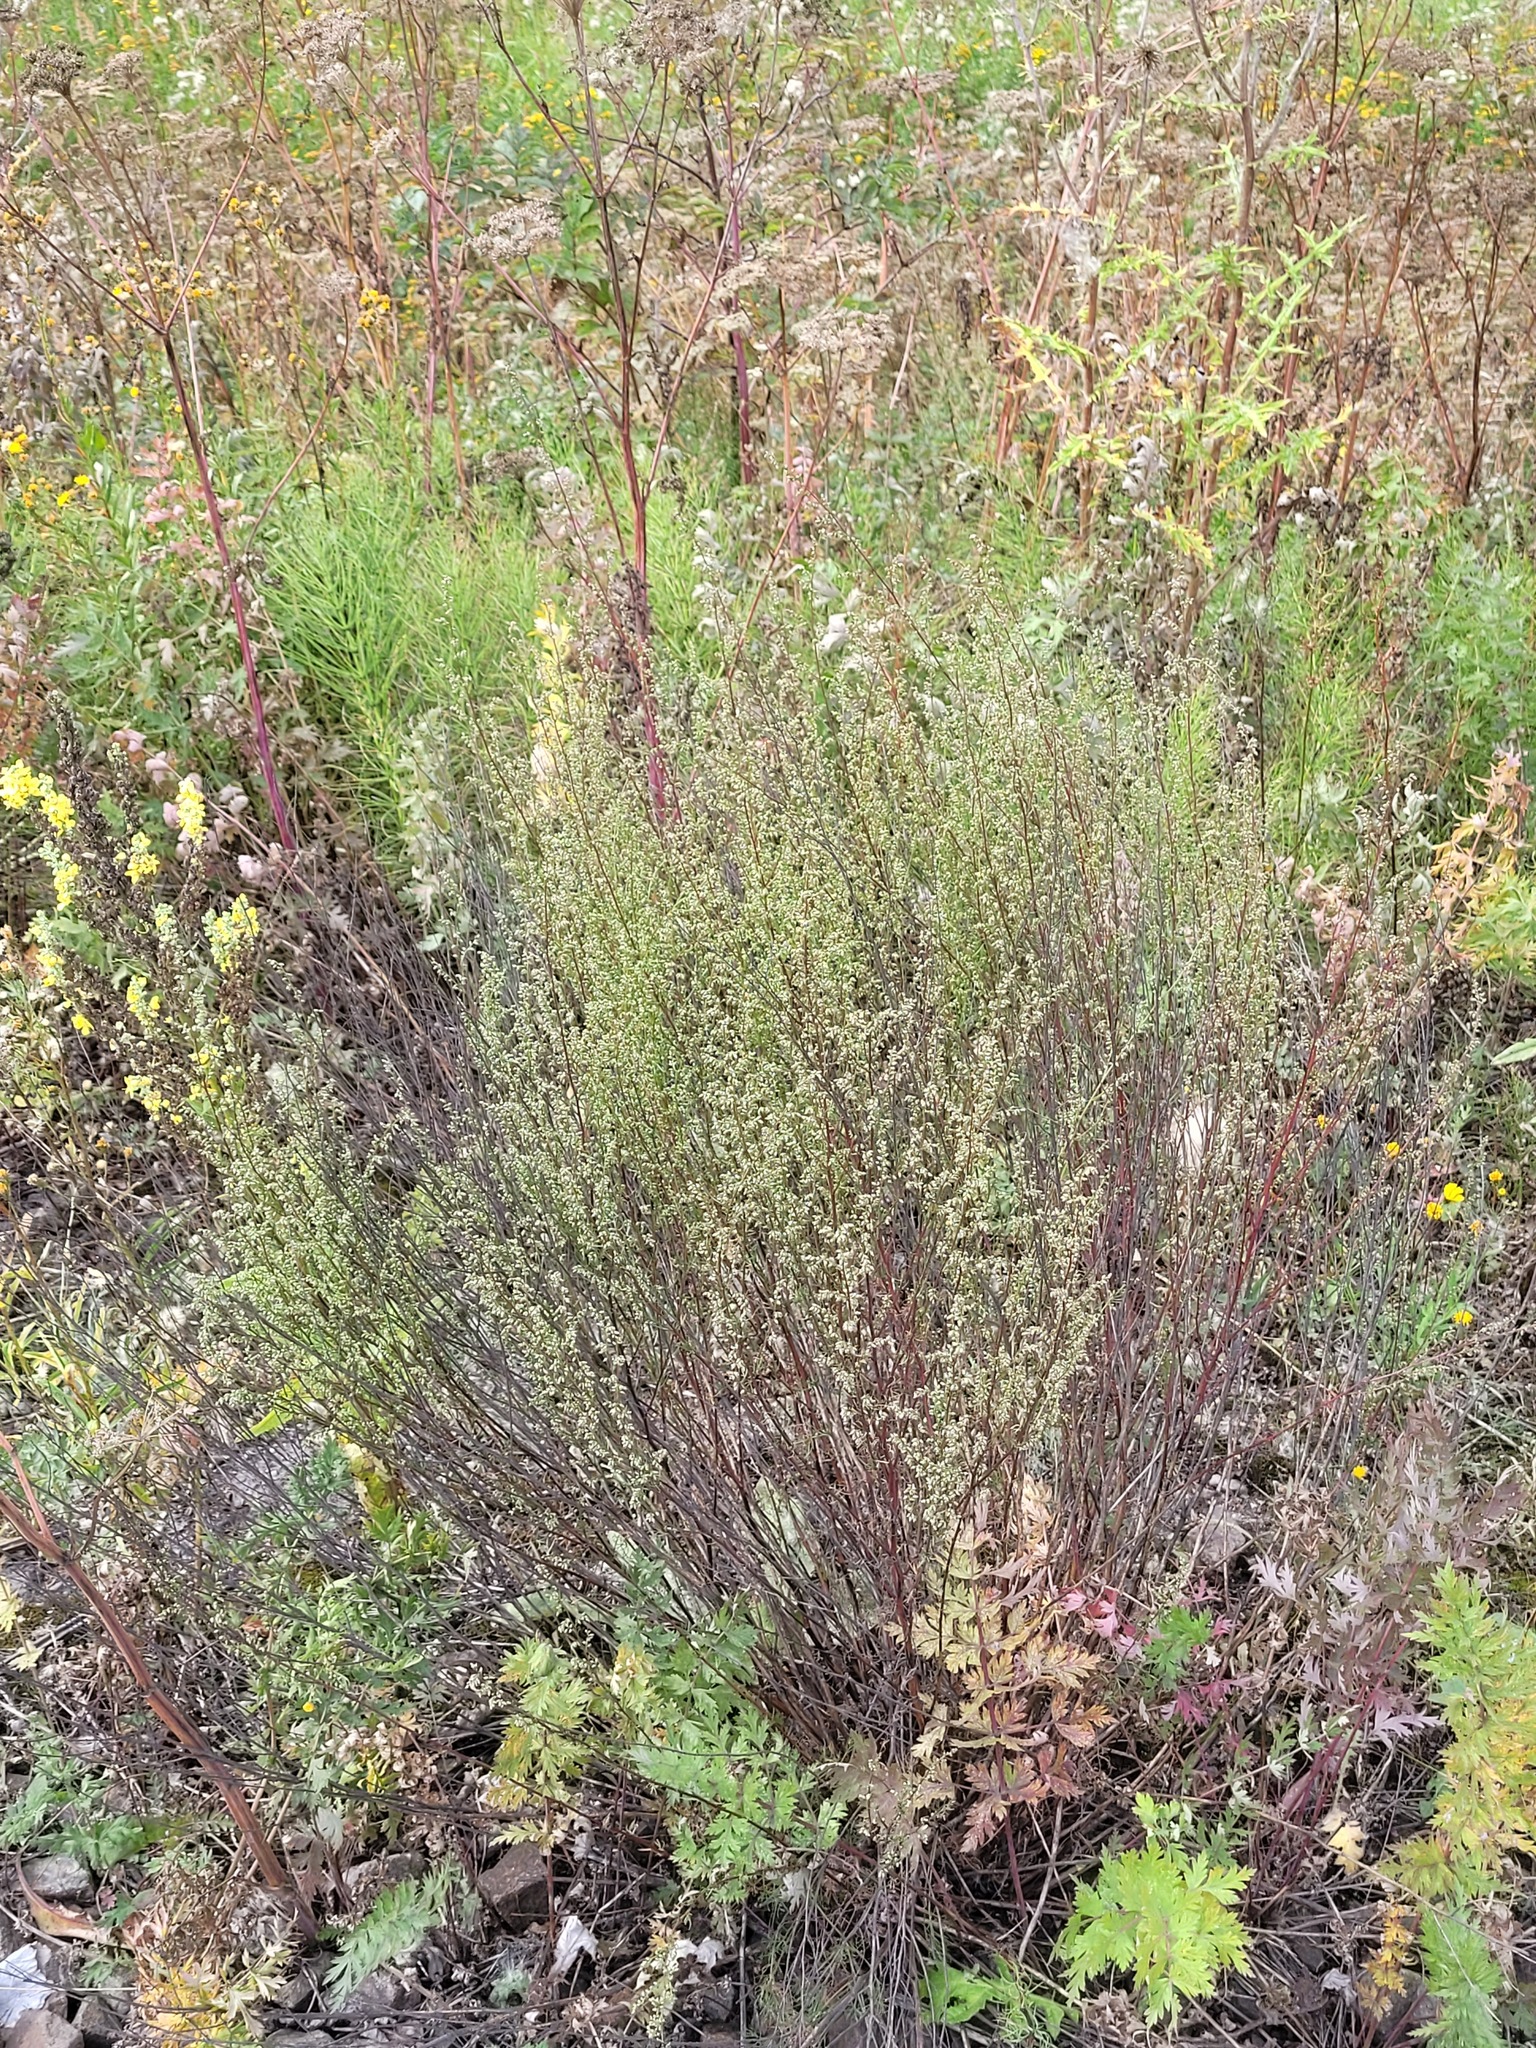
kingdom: Plantae
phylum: Tracheophyta
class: Magnoliopsida
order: Asterales
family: Asteraceae
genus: Artemisia
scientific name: Artemisia campestris
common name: Field wormwood
